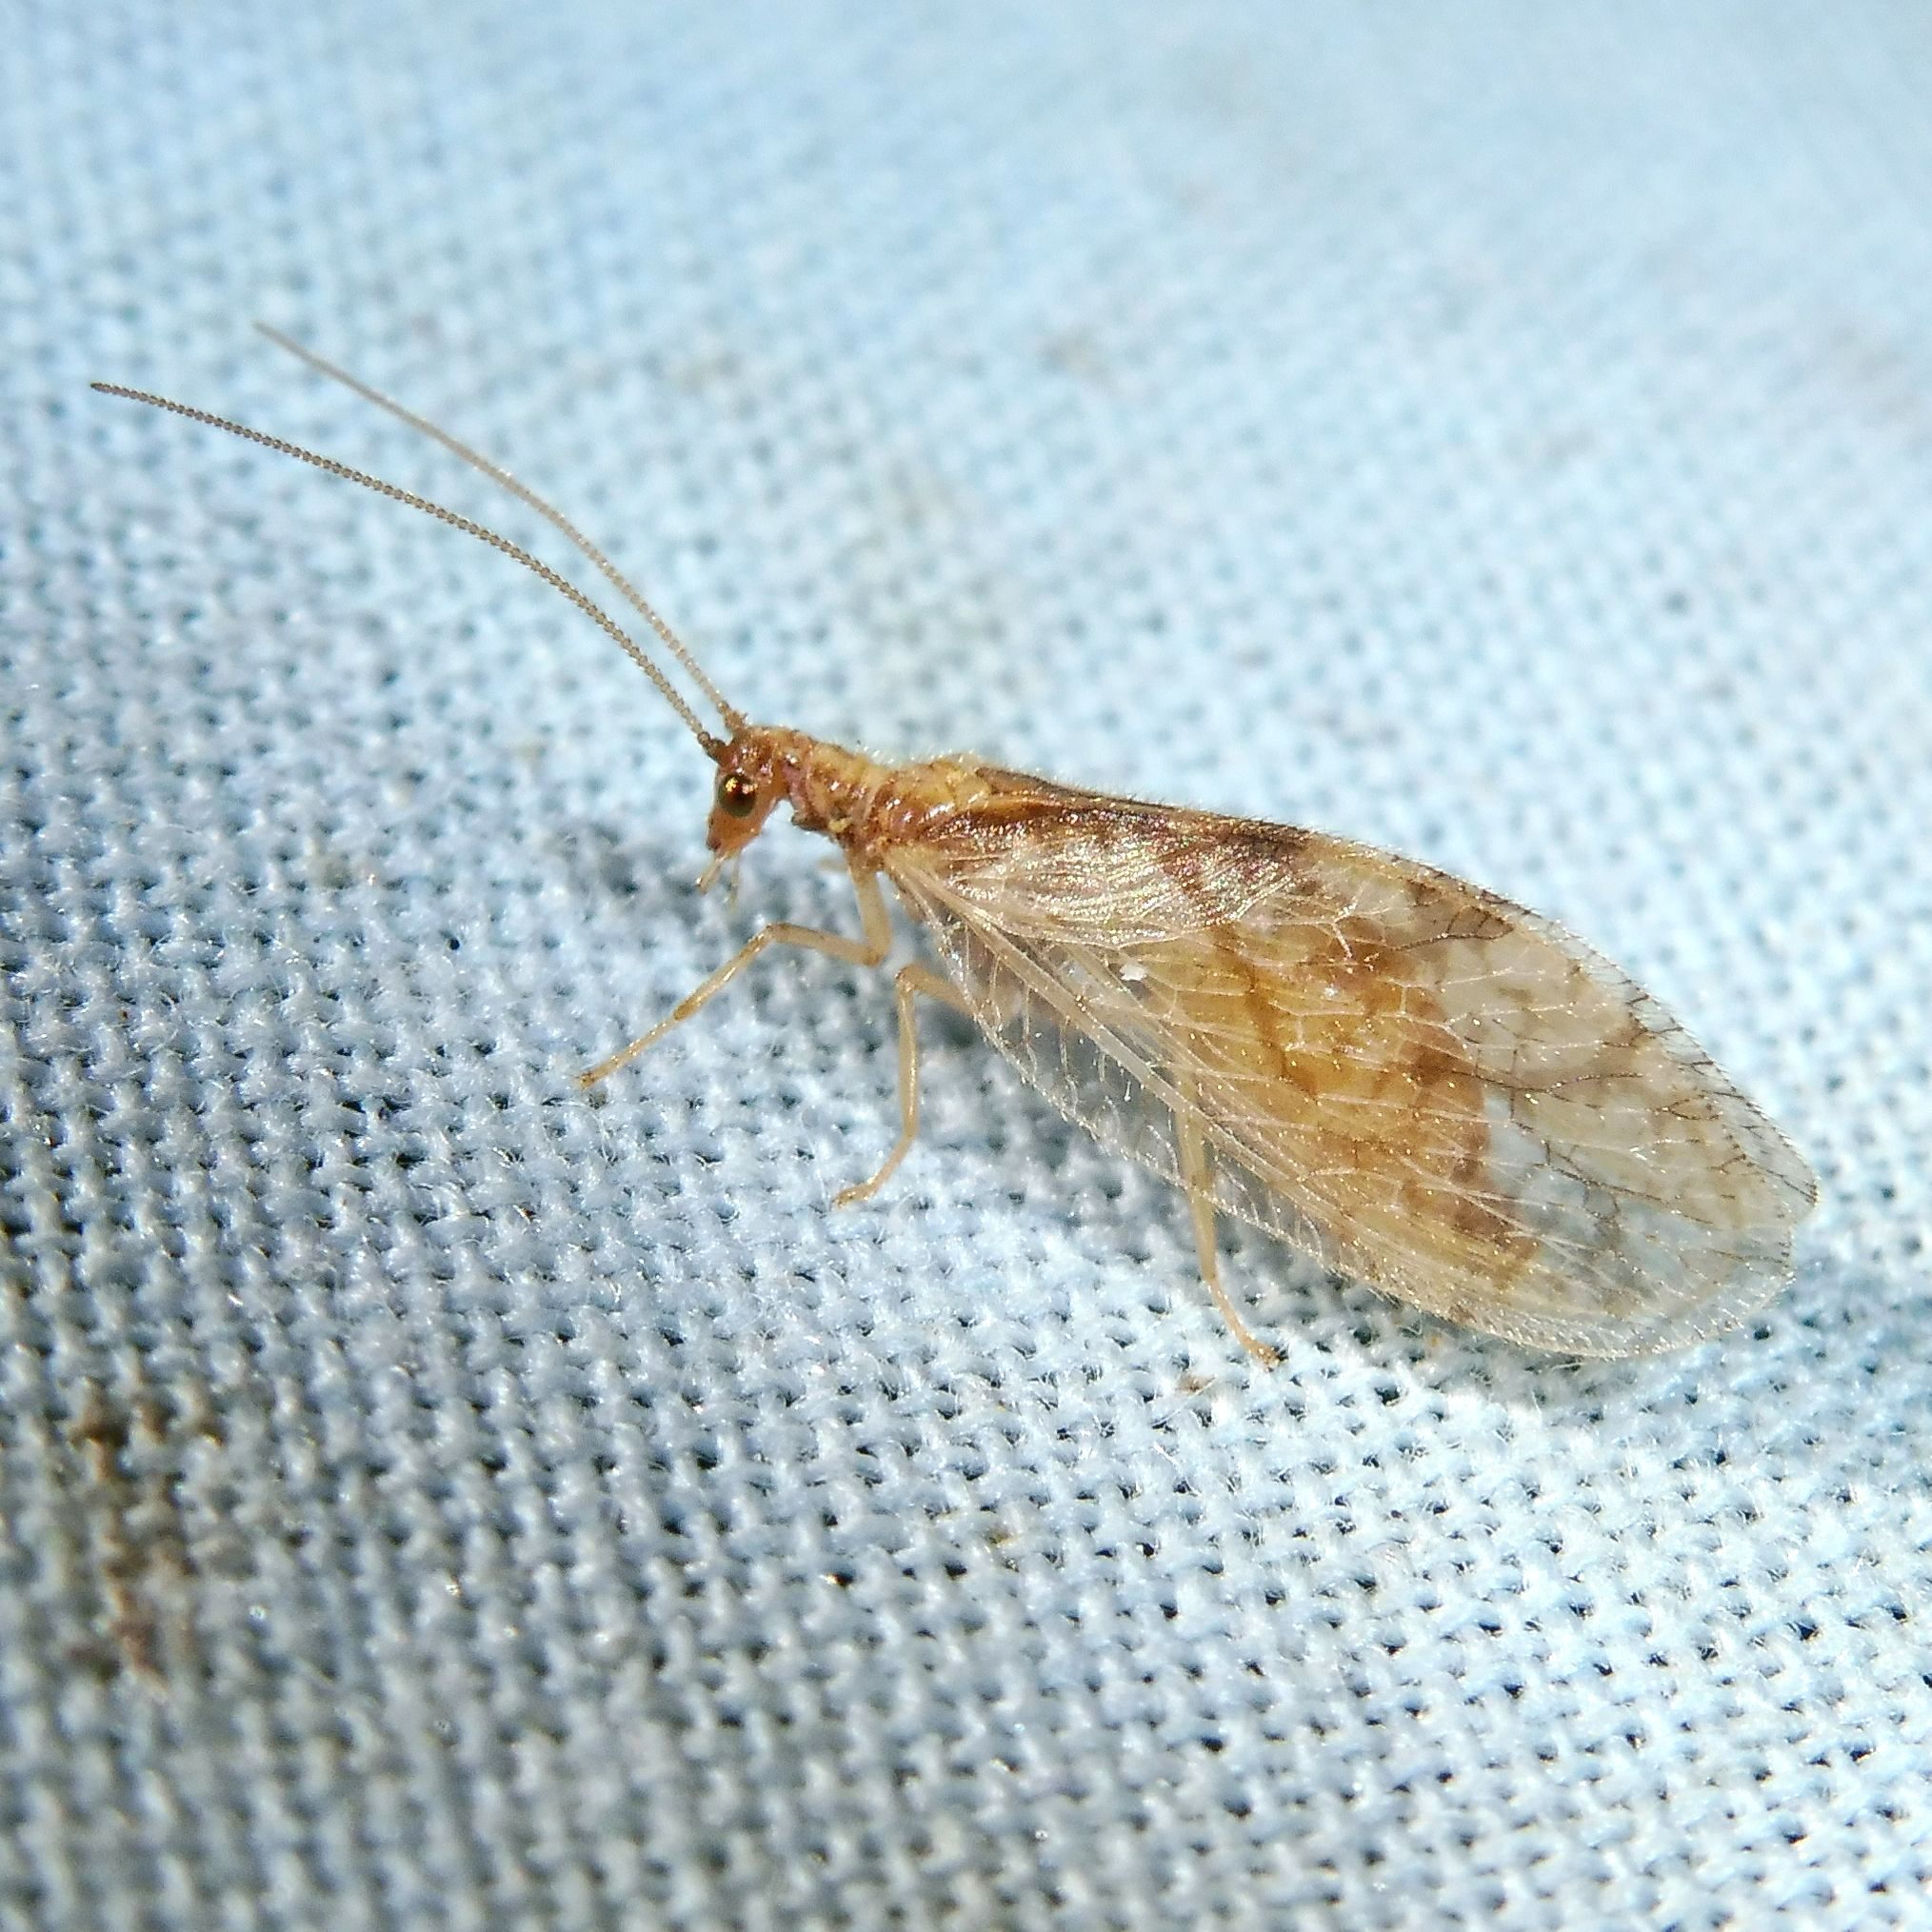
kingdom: Animalia
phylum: Arthropoda
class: Insecta
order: Neuroptera
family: Hemerobiidae
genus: Micromus
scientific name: Micromus paganus
